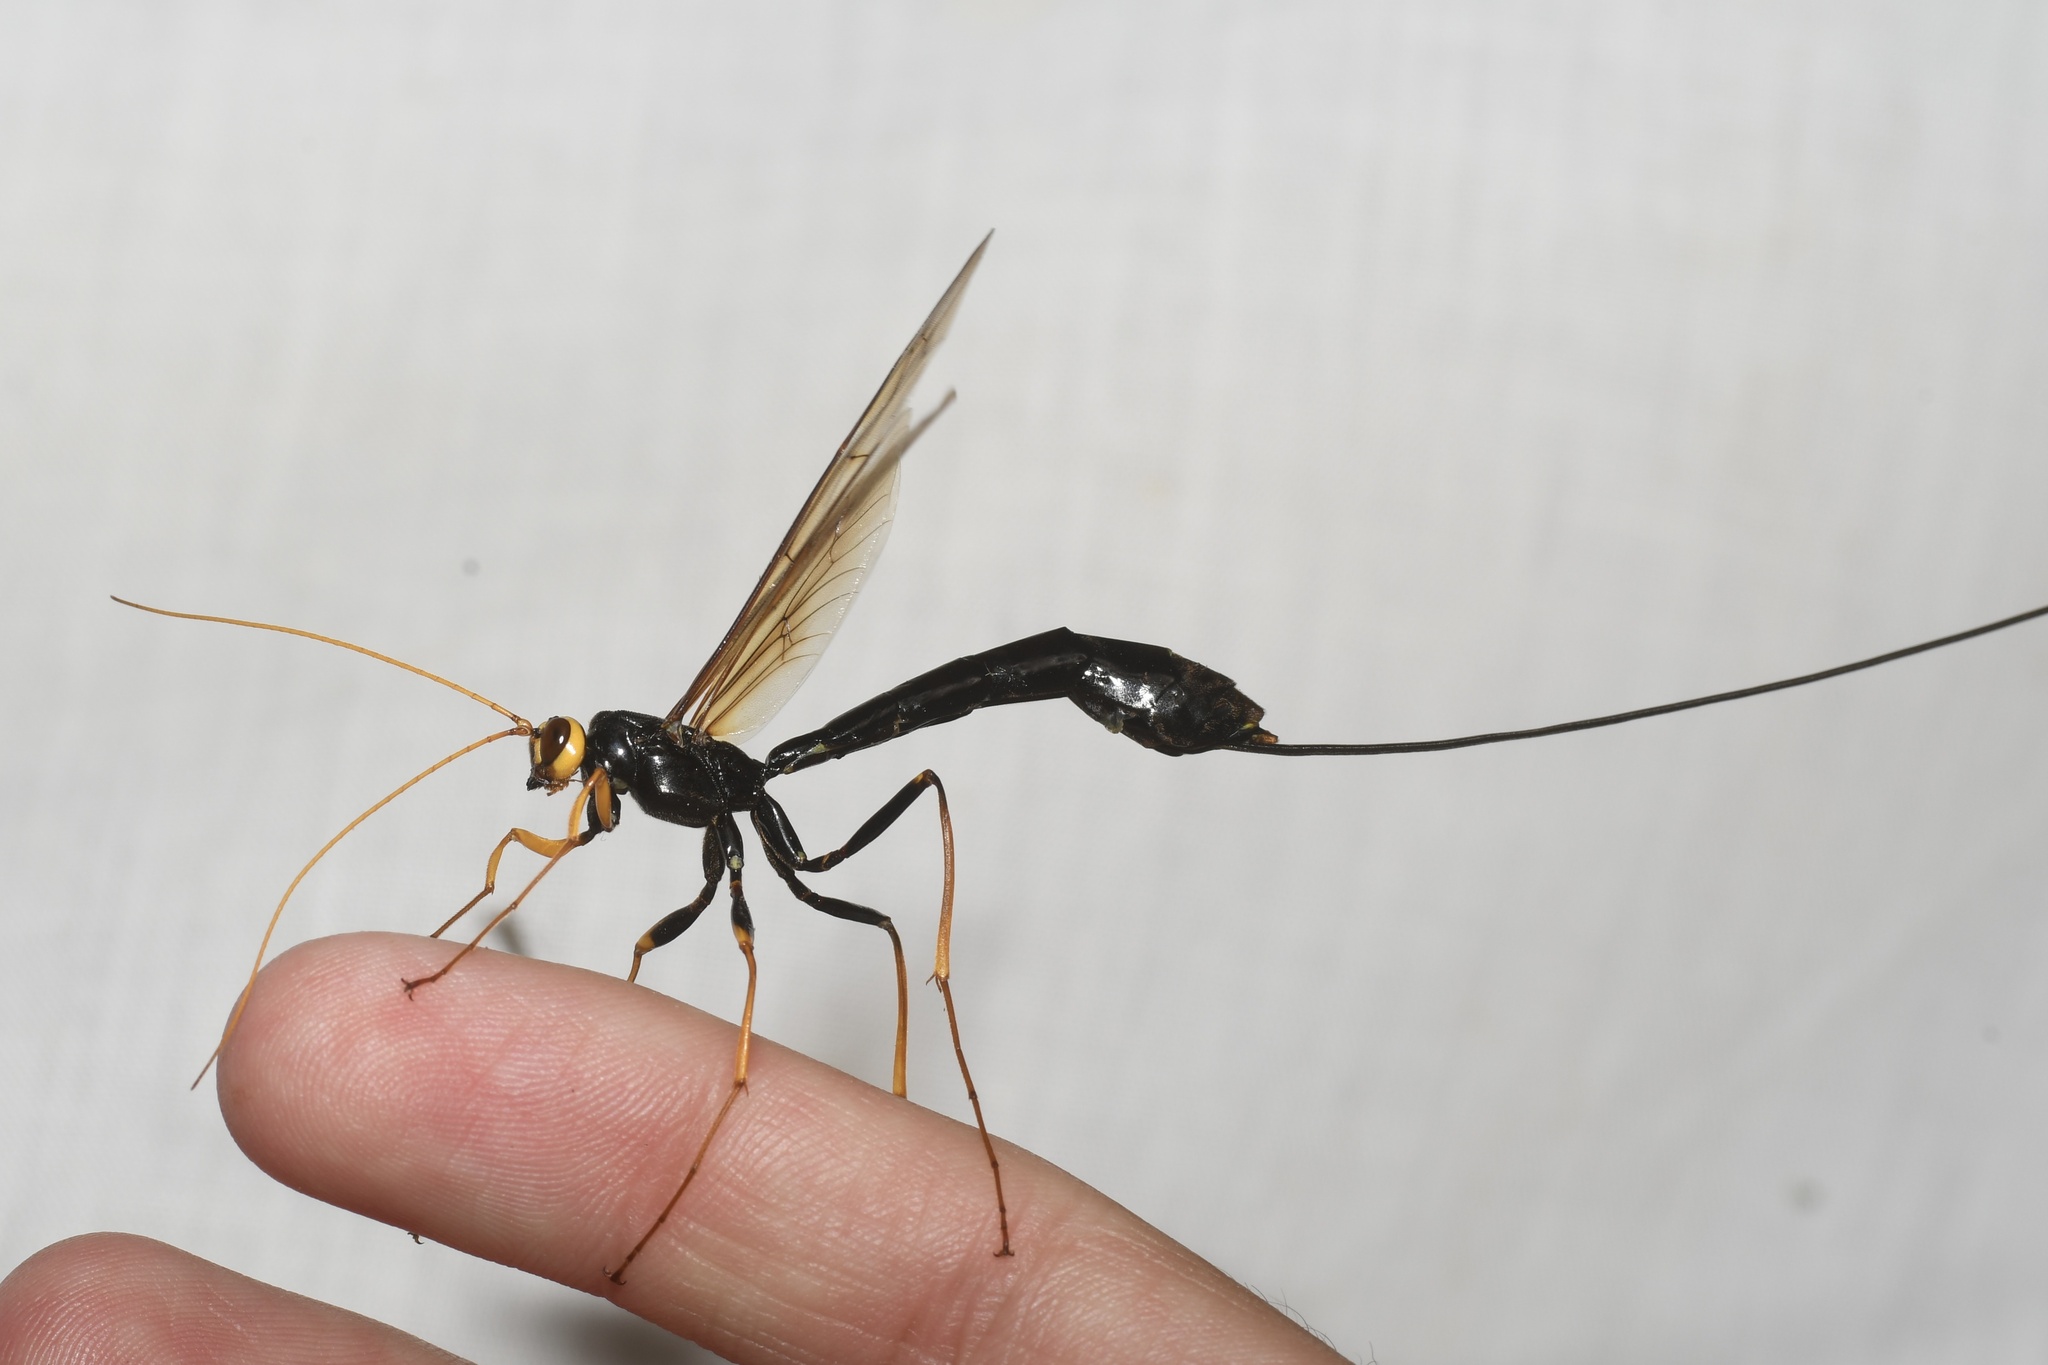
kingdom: Animalia
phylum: Arthropoda
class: Insecta
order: Hymenoptera
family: Ichneumonidae
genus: Megarhyssa
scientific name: Megarhyssa atrata
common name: Black giant ichneumonid wasp
